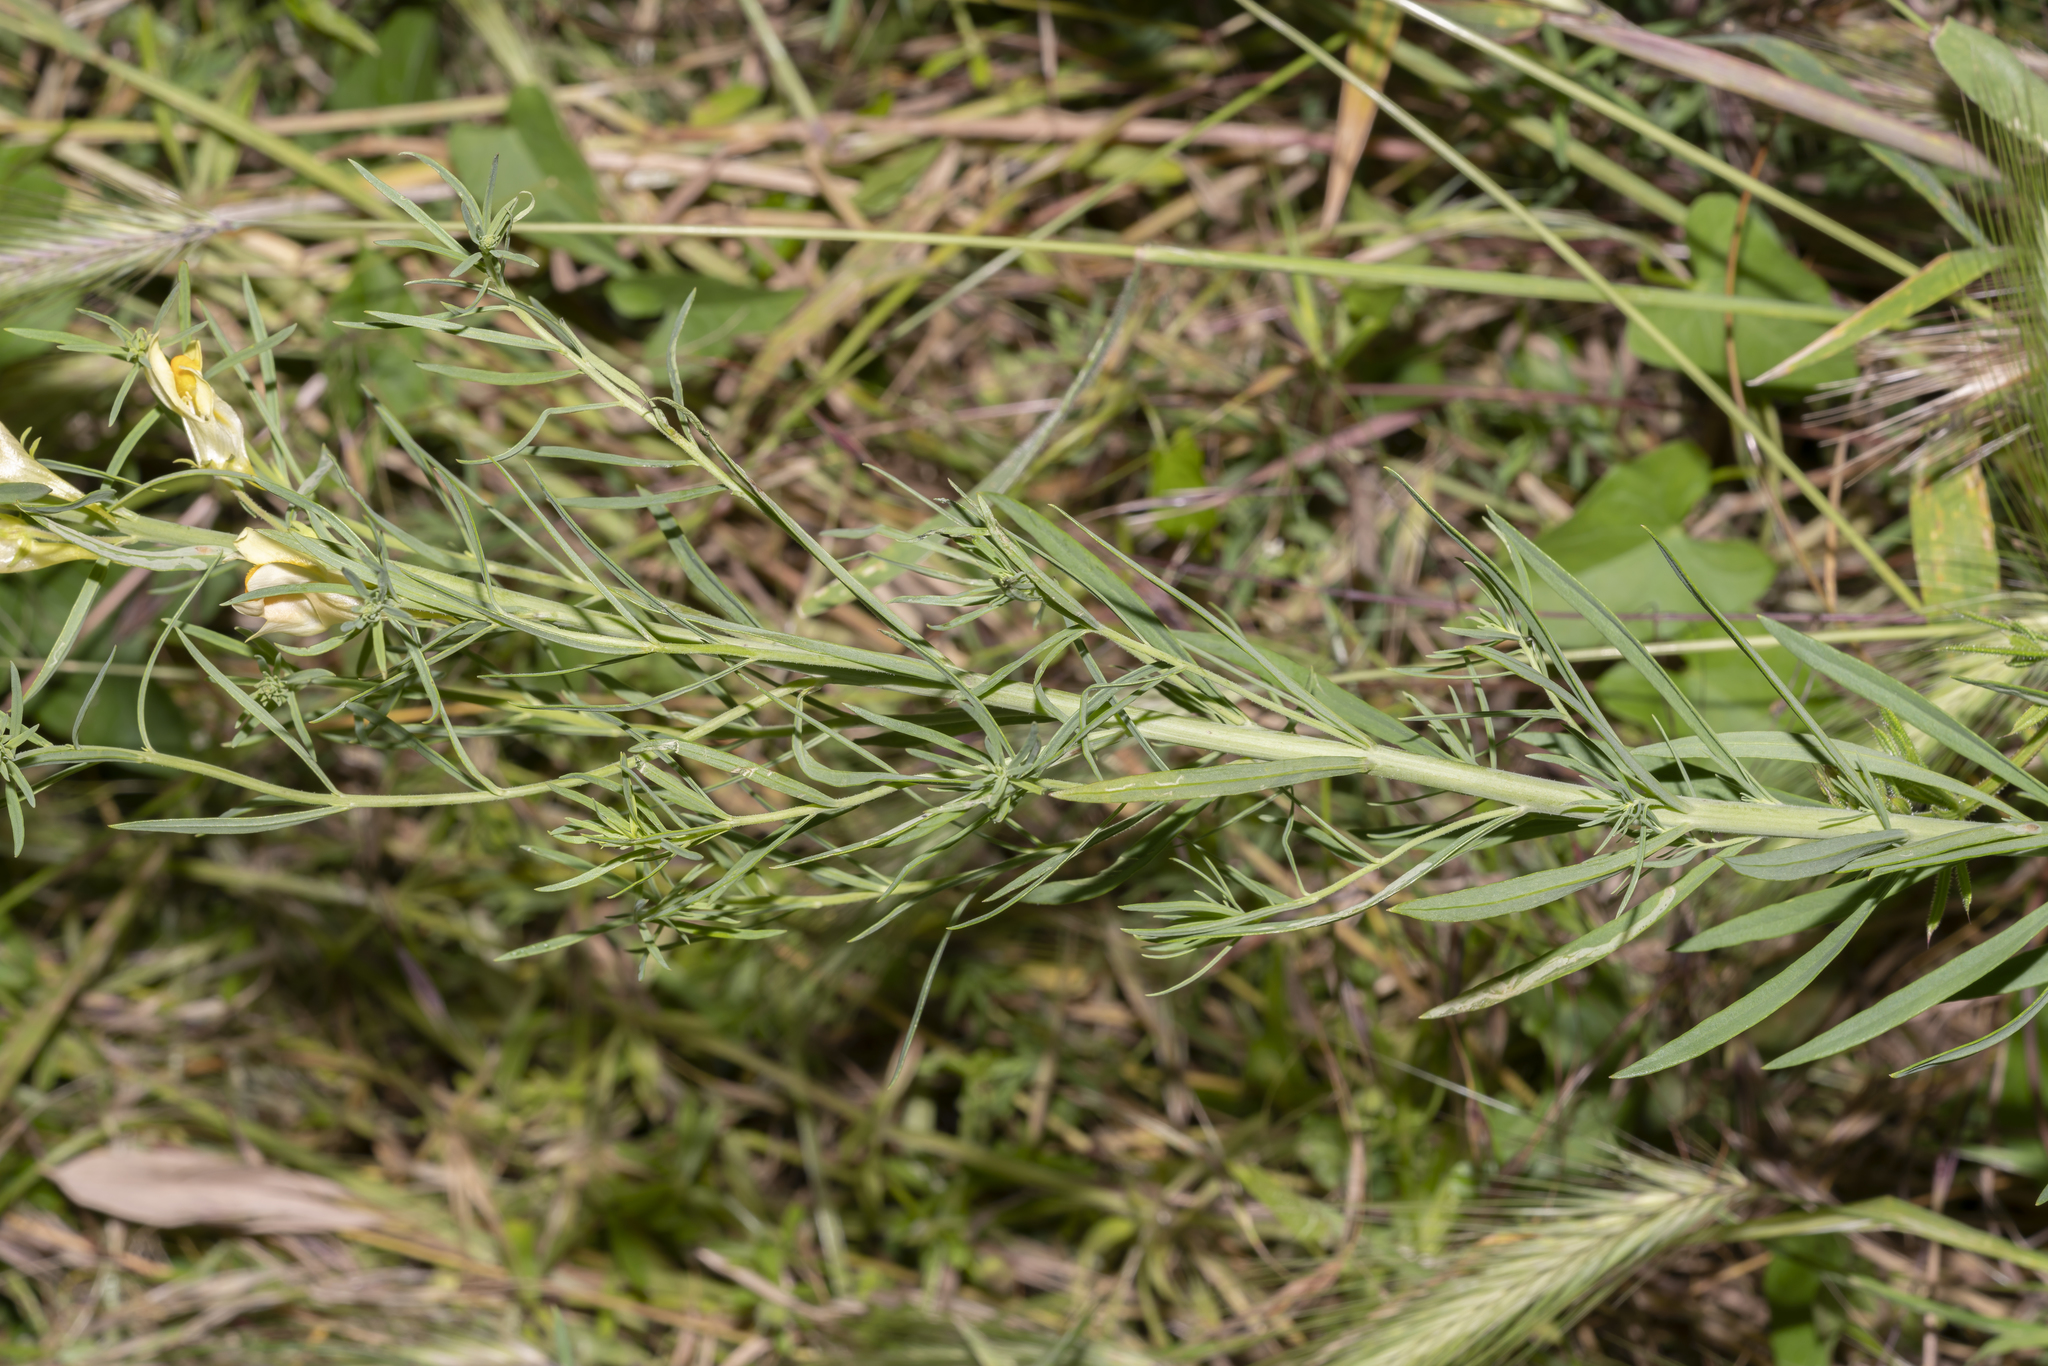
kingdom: Plantae
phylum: Tracheophyta
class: Magnoliopsida
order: Lamiales
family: Plantaginaceae
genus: Linaria
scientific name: Linaria vulgaris
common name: Butter and eggs
